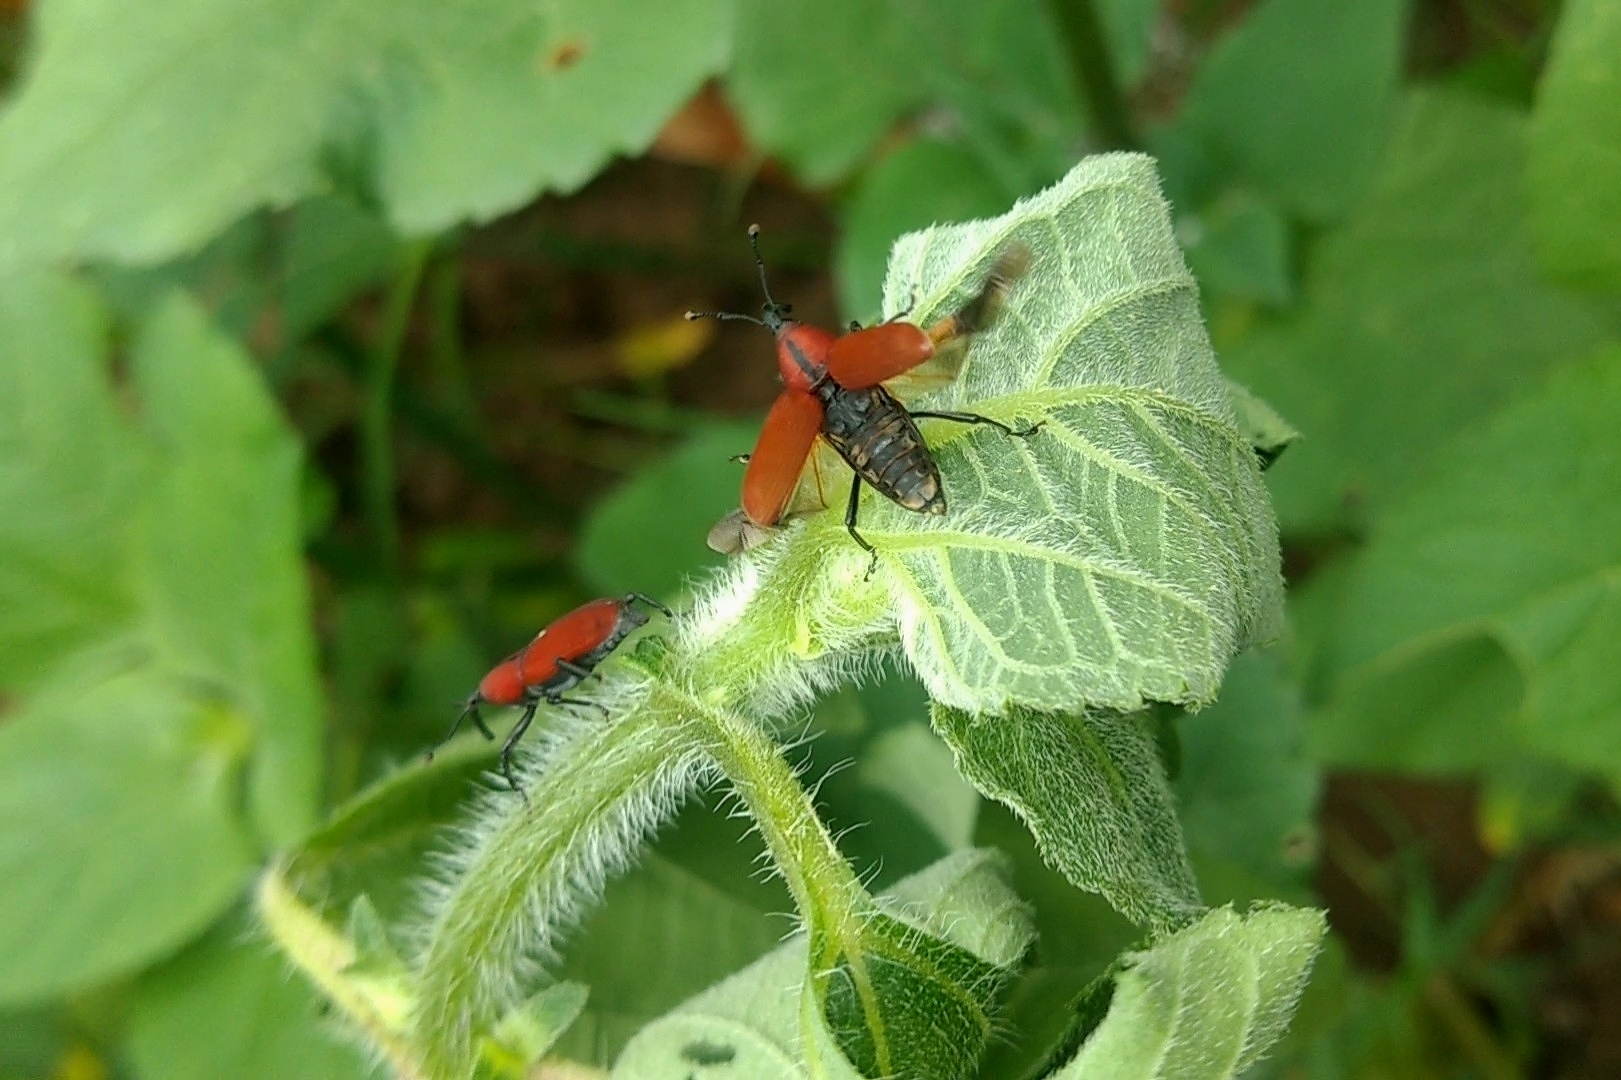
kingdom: Animalia
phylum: Arthropoda
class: Insecta
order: Coleoptera
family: Dryophthoridae
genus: Rhodobaenus
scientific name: Rhodobaenus sanguineus
